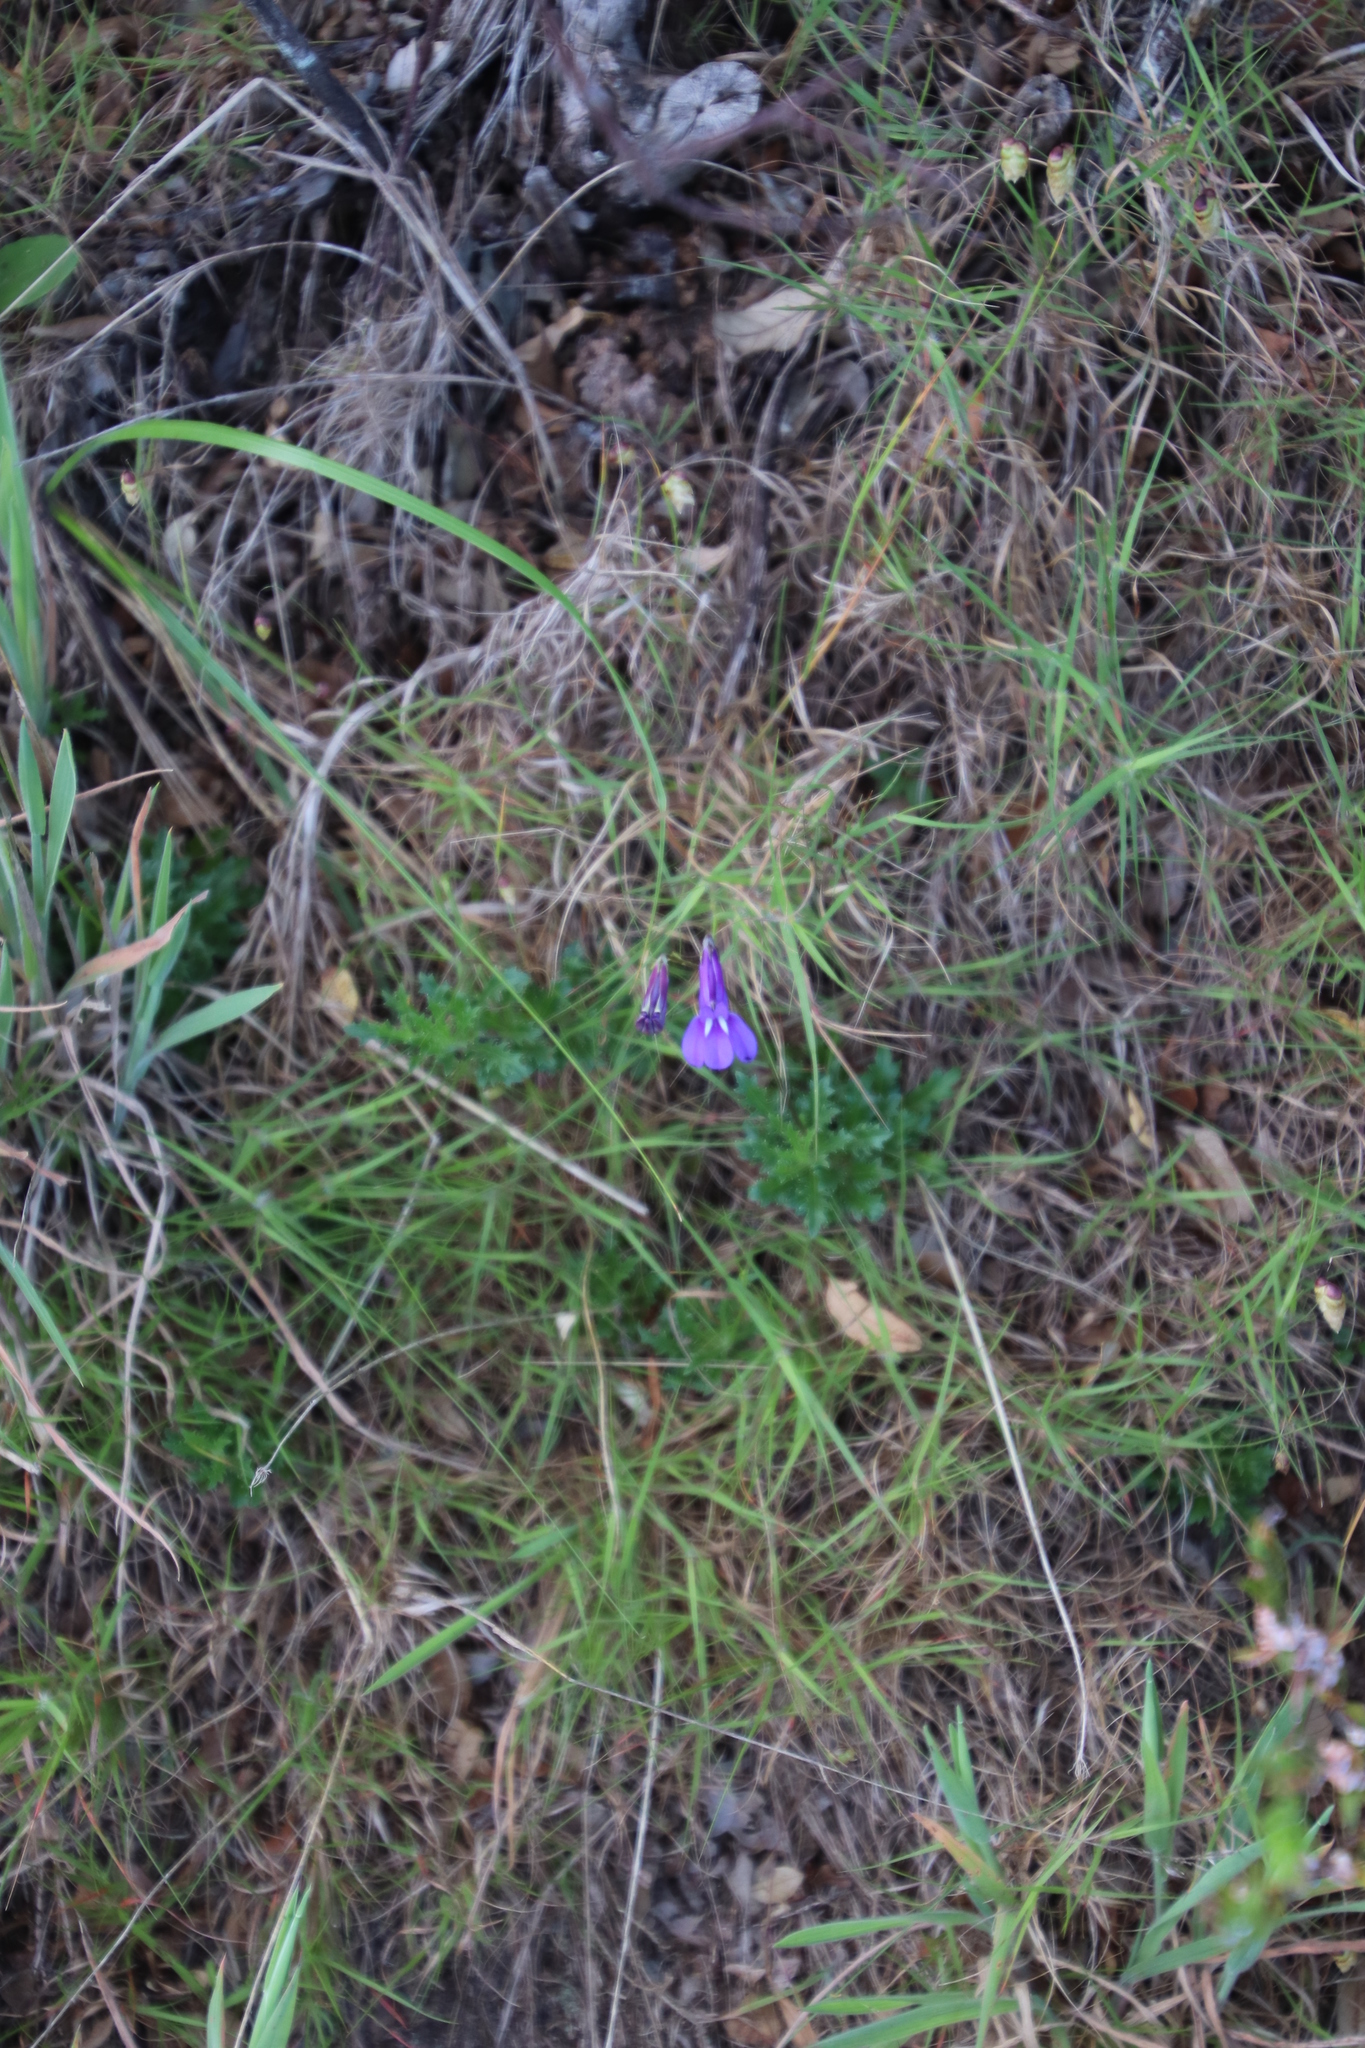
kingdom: Plantae
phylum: Tracheophyta
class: Magnoliopsida
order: Asterales
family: Campanulaceae
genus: Lobelia
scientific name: Lobelia coronopifolia
